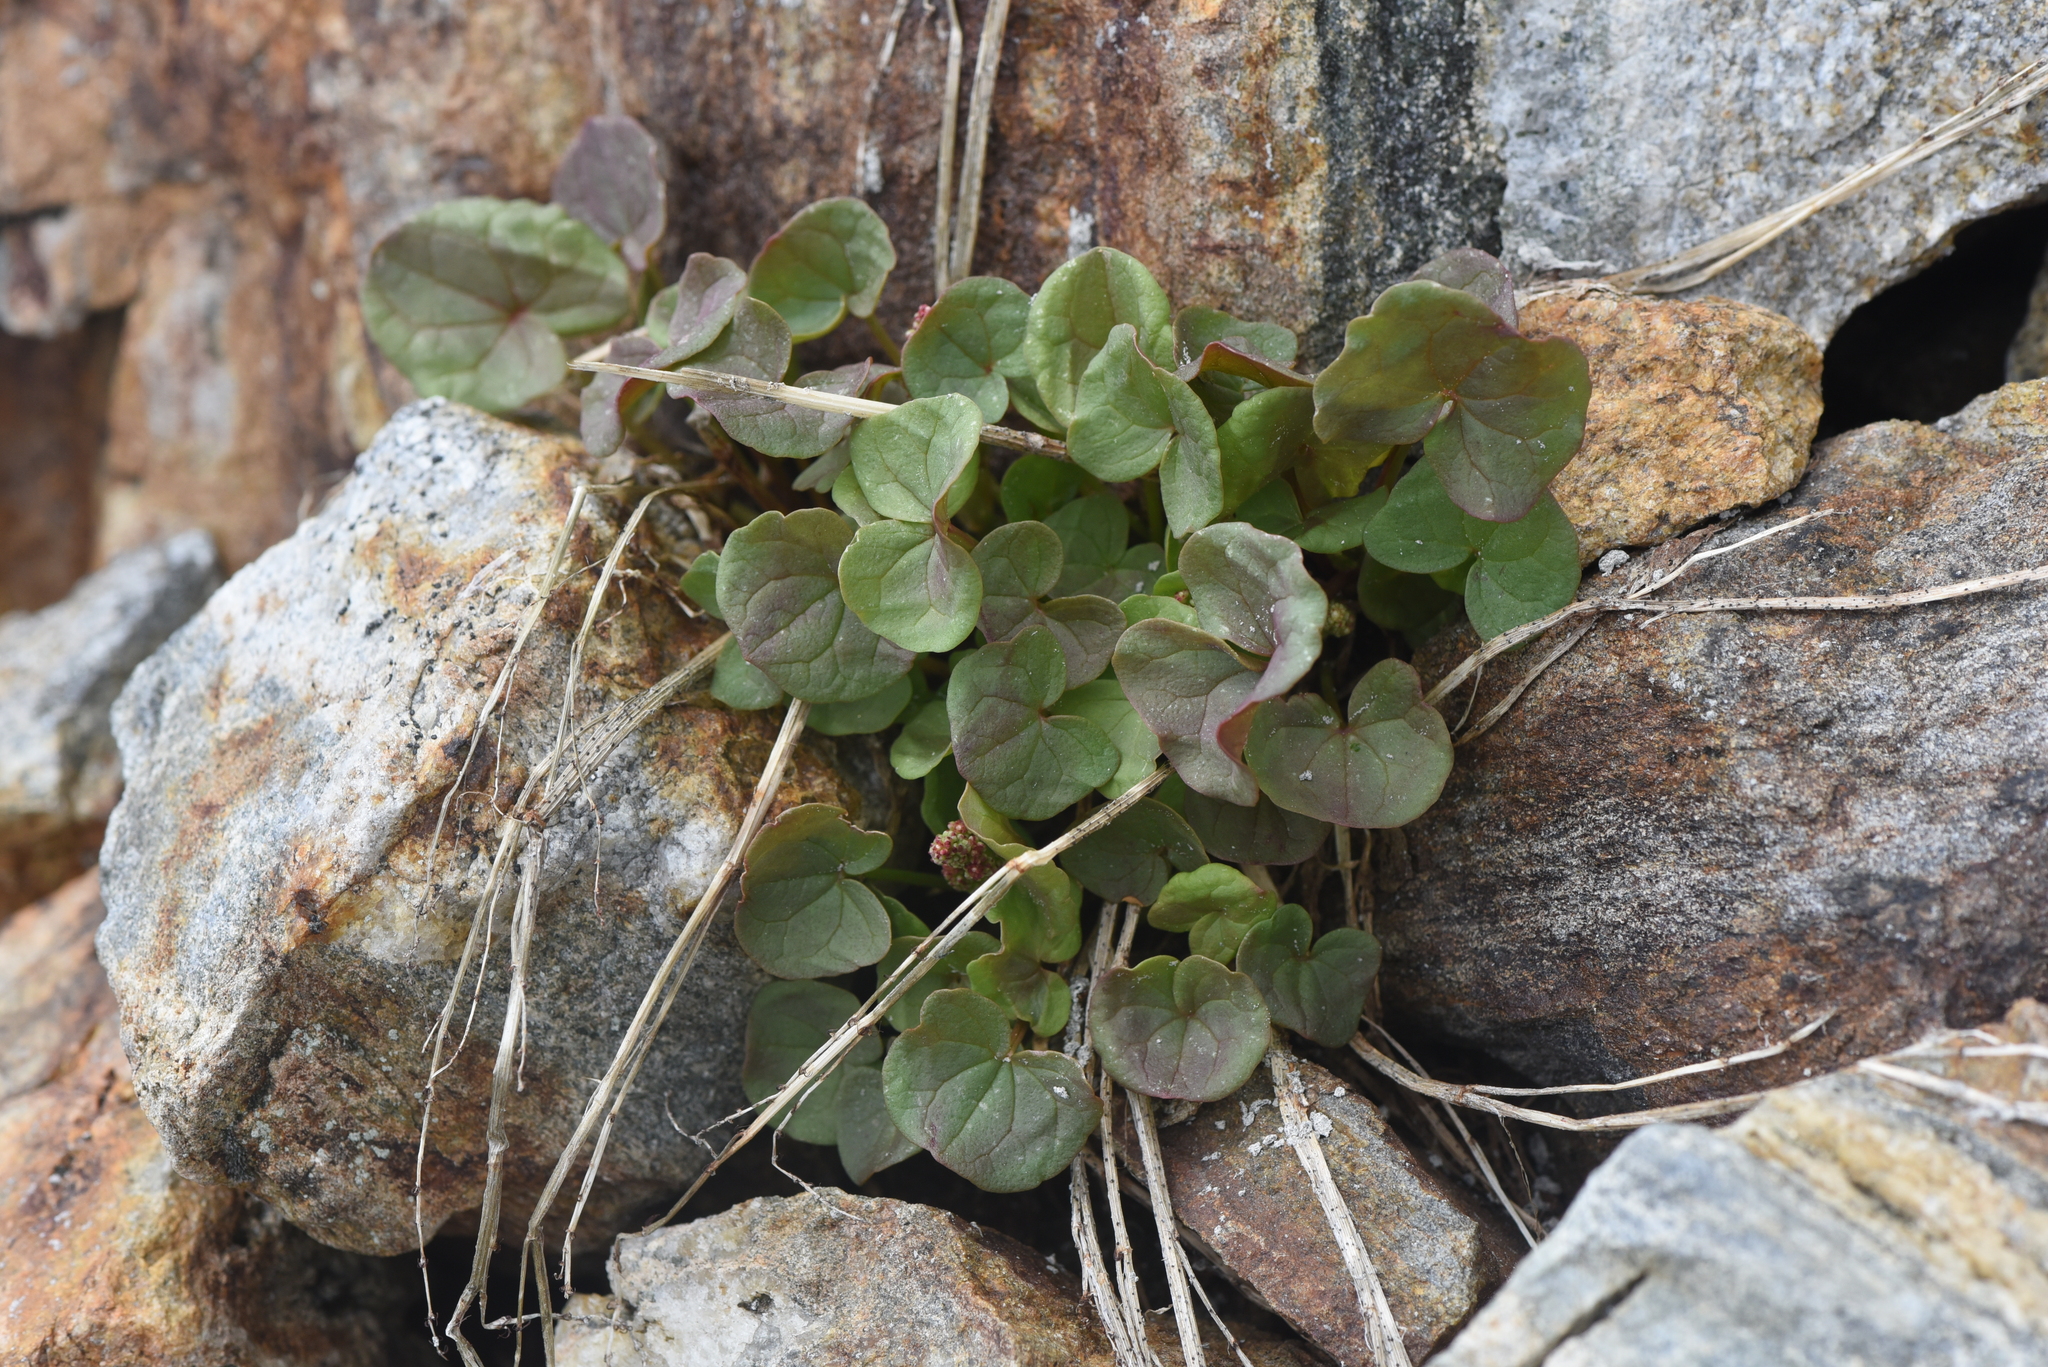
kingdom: Plantae
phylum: Tracheophyta
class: Magnoliopsida
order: Caryophyllales
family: Polygonaceae
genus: Oxyria
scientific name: Oxyria digyna
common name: Alpine mountain-sorrel
